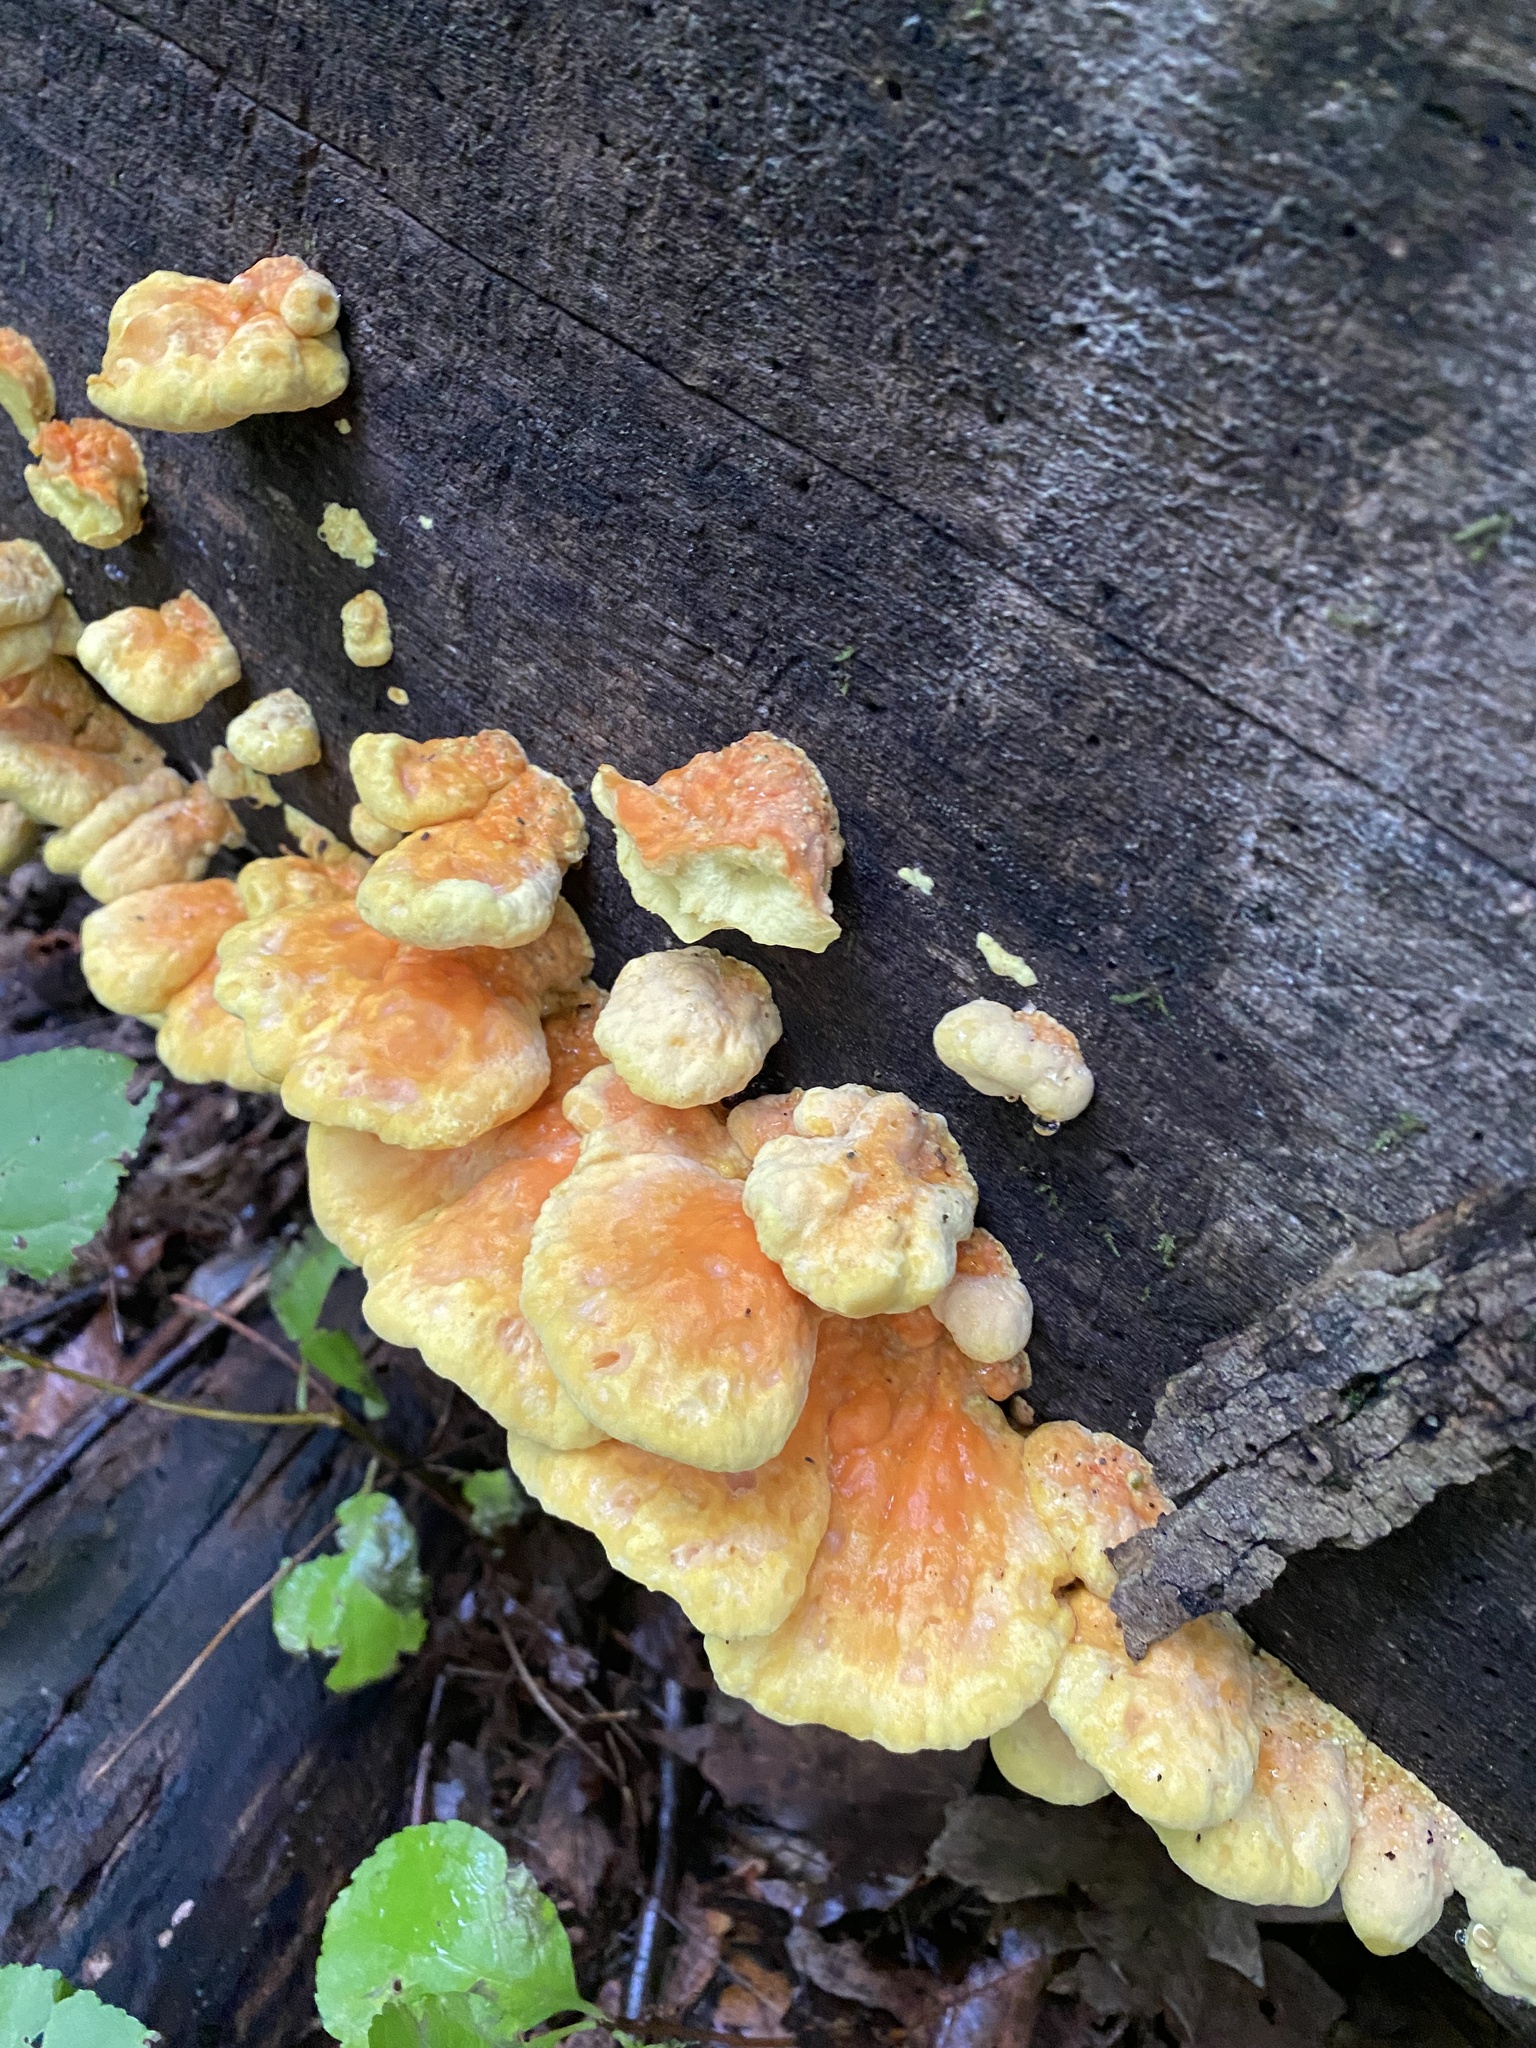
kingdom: Fungi
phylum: Basidiomycota
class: Agaricomycetes
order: Polyporales
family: Laetiporaceae
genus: Laetiporus
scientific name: Laetiporus sulphureus
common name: Chicken of the woods
